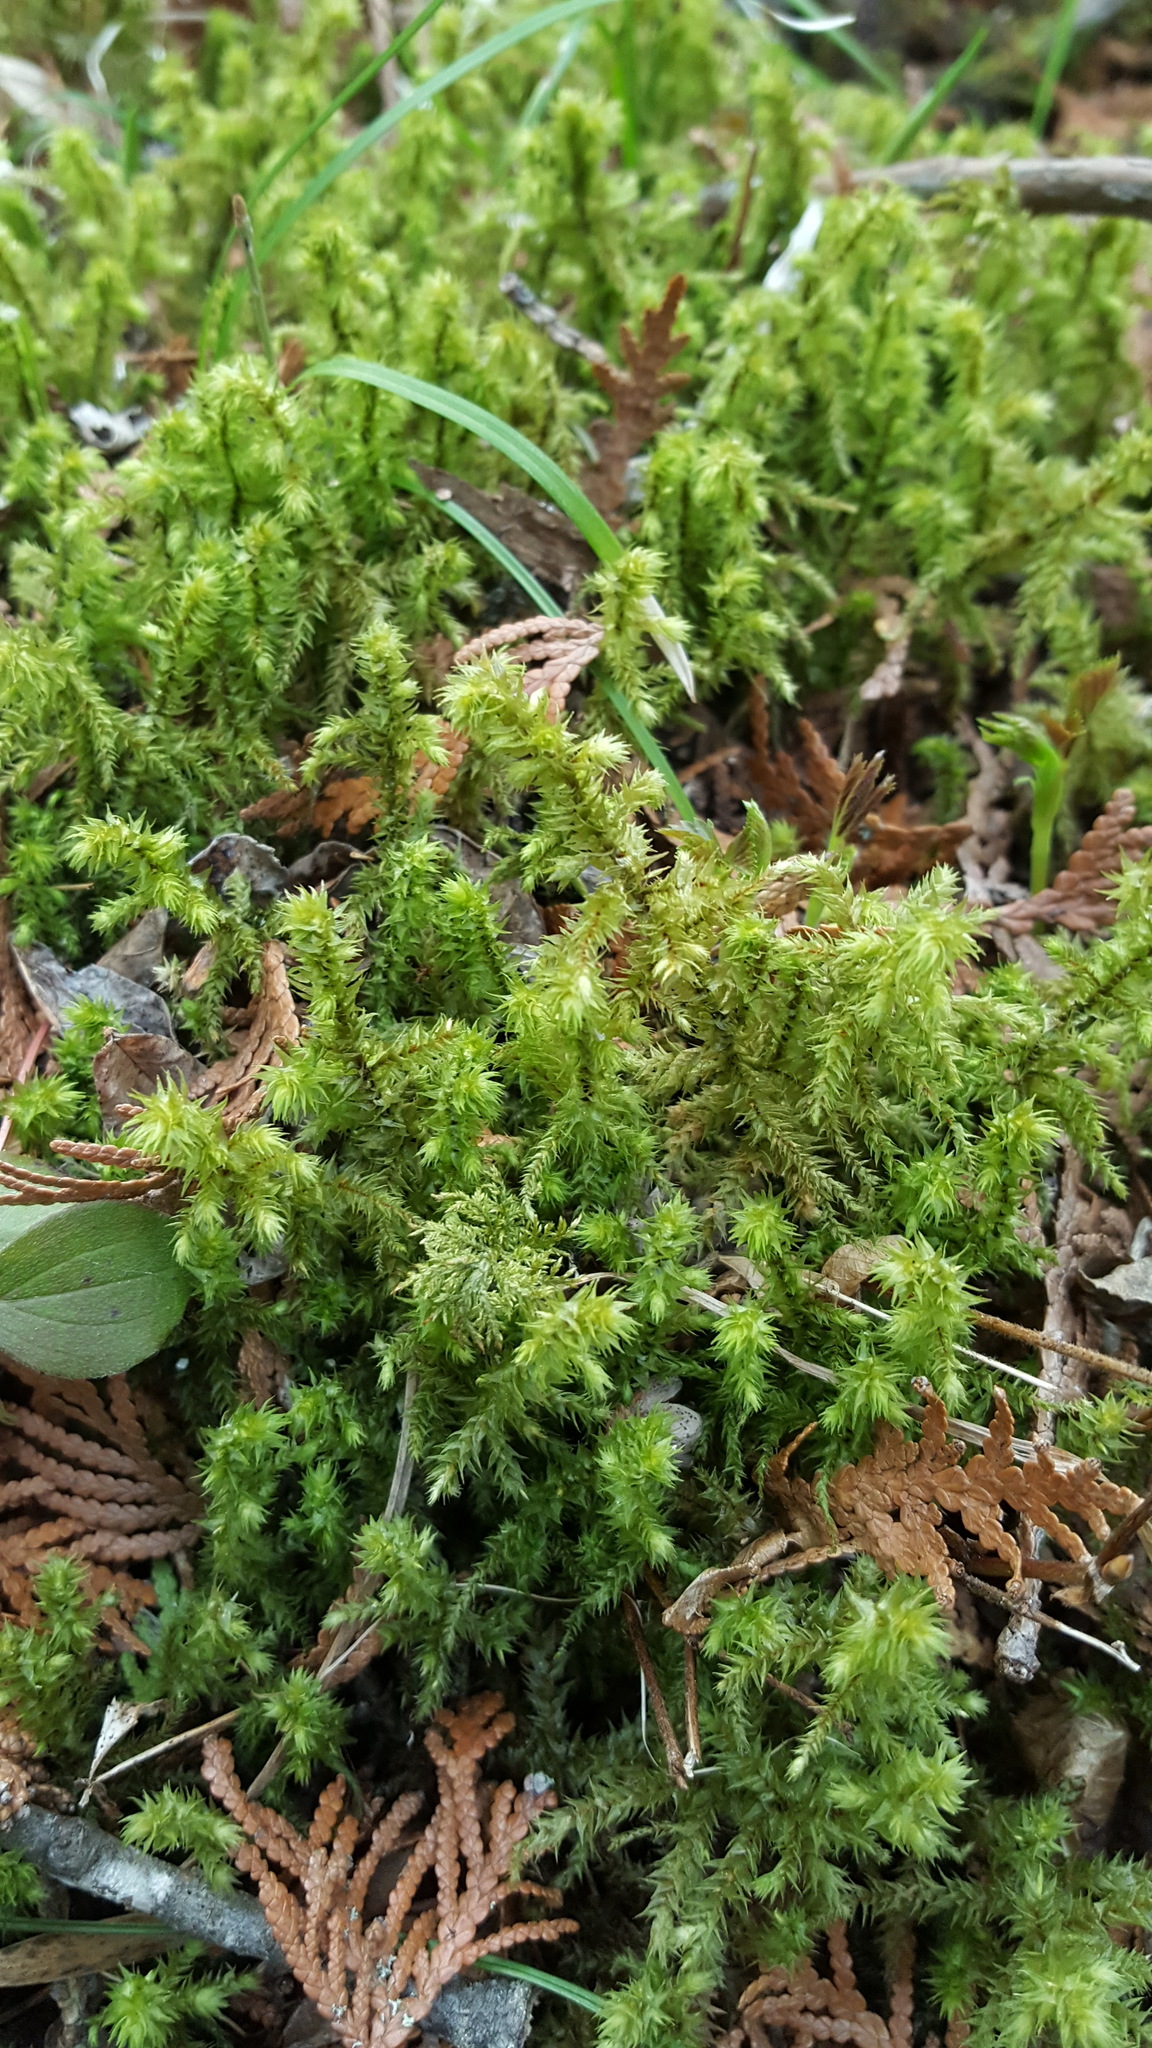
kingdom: Plantae
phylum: Bryophyta
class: Bryopsida
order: Hypnales
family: Hylocomiaceae
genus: Hylocomiadelphus
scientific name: Hylocomiadelphus triquetrus
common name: Rough goose neck moss
